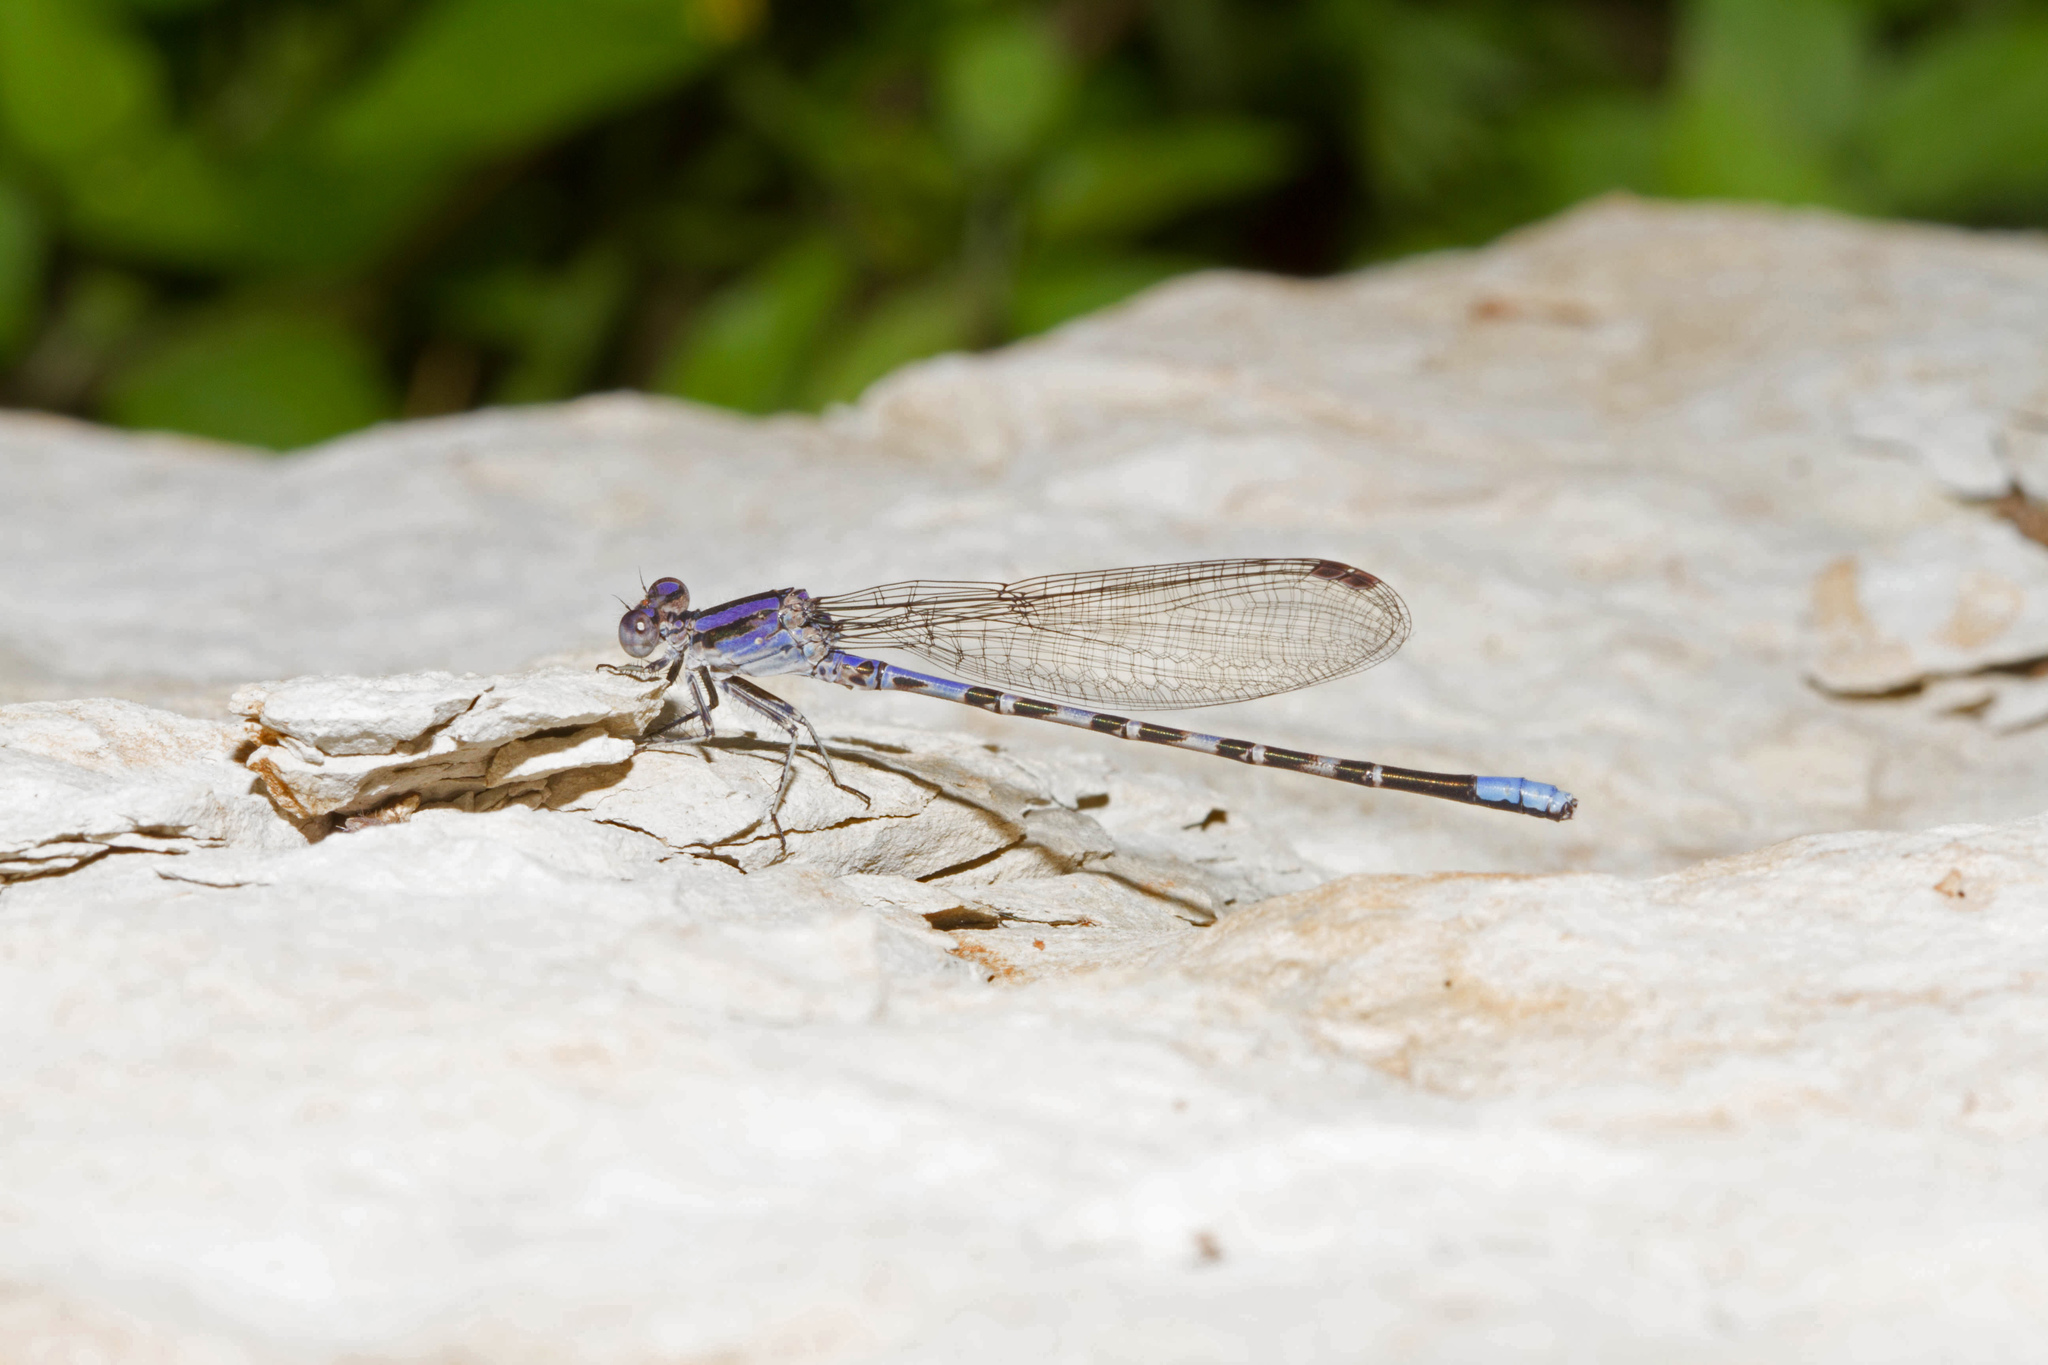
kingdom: Animalia
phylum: Arthropoda
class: Insecta
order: Odonata
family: Coenagrionidae
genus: Argia
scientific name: Argia immunda
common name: Kiowa dancer
